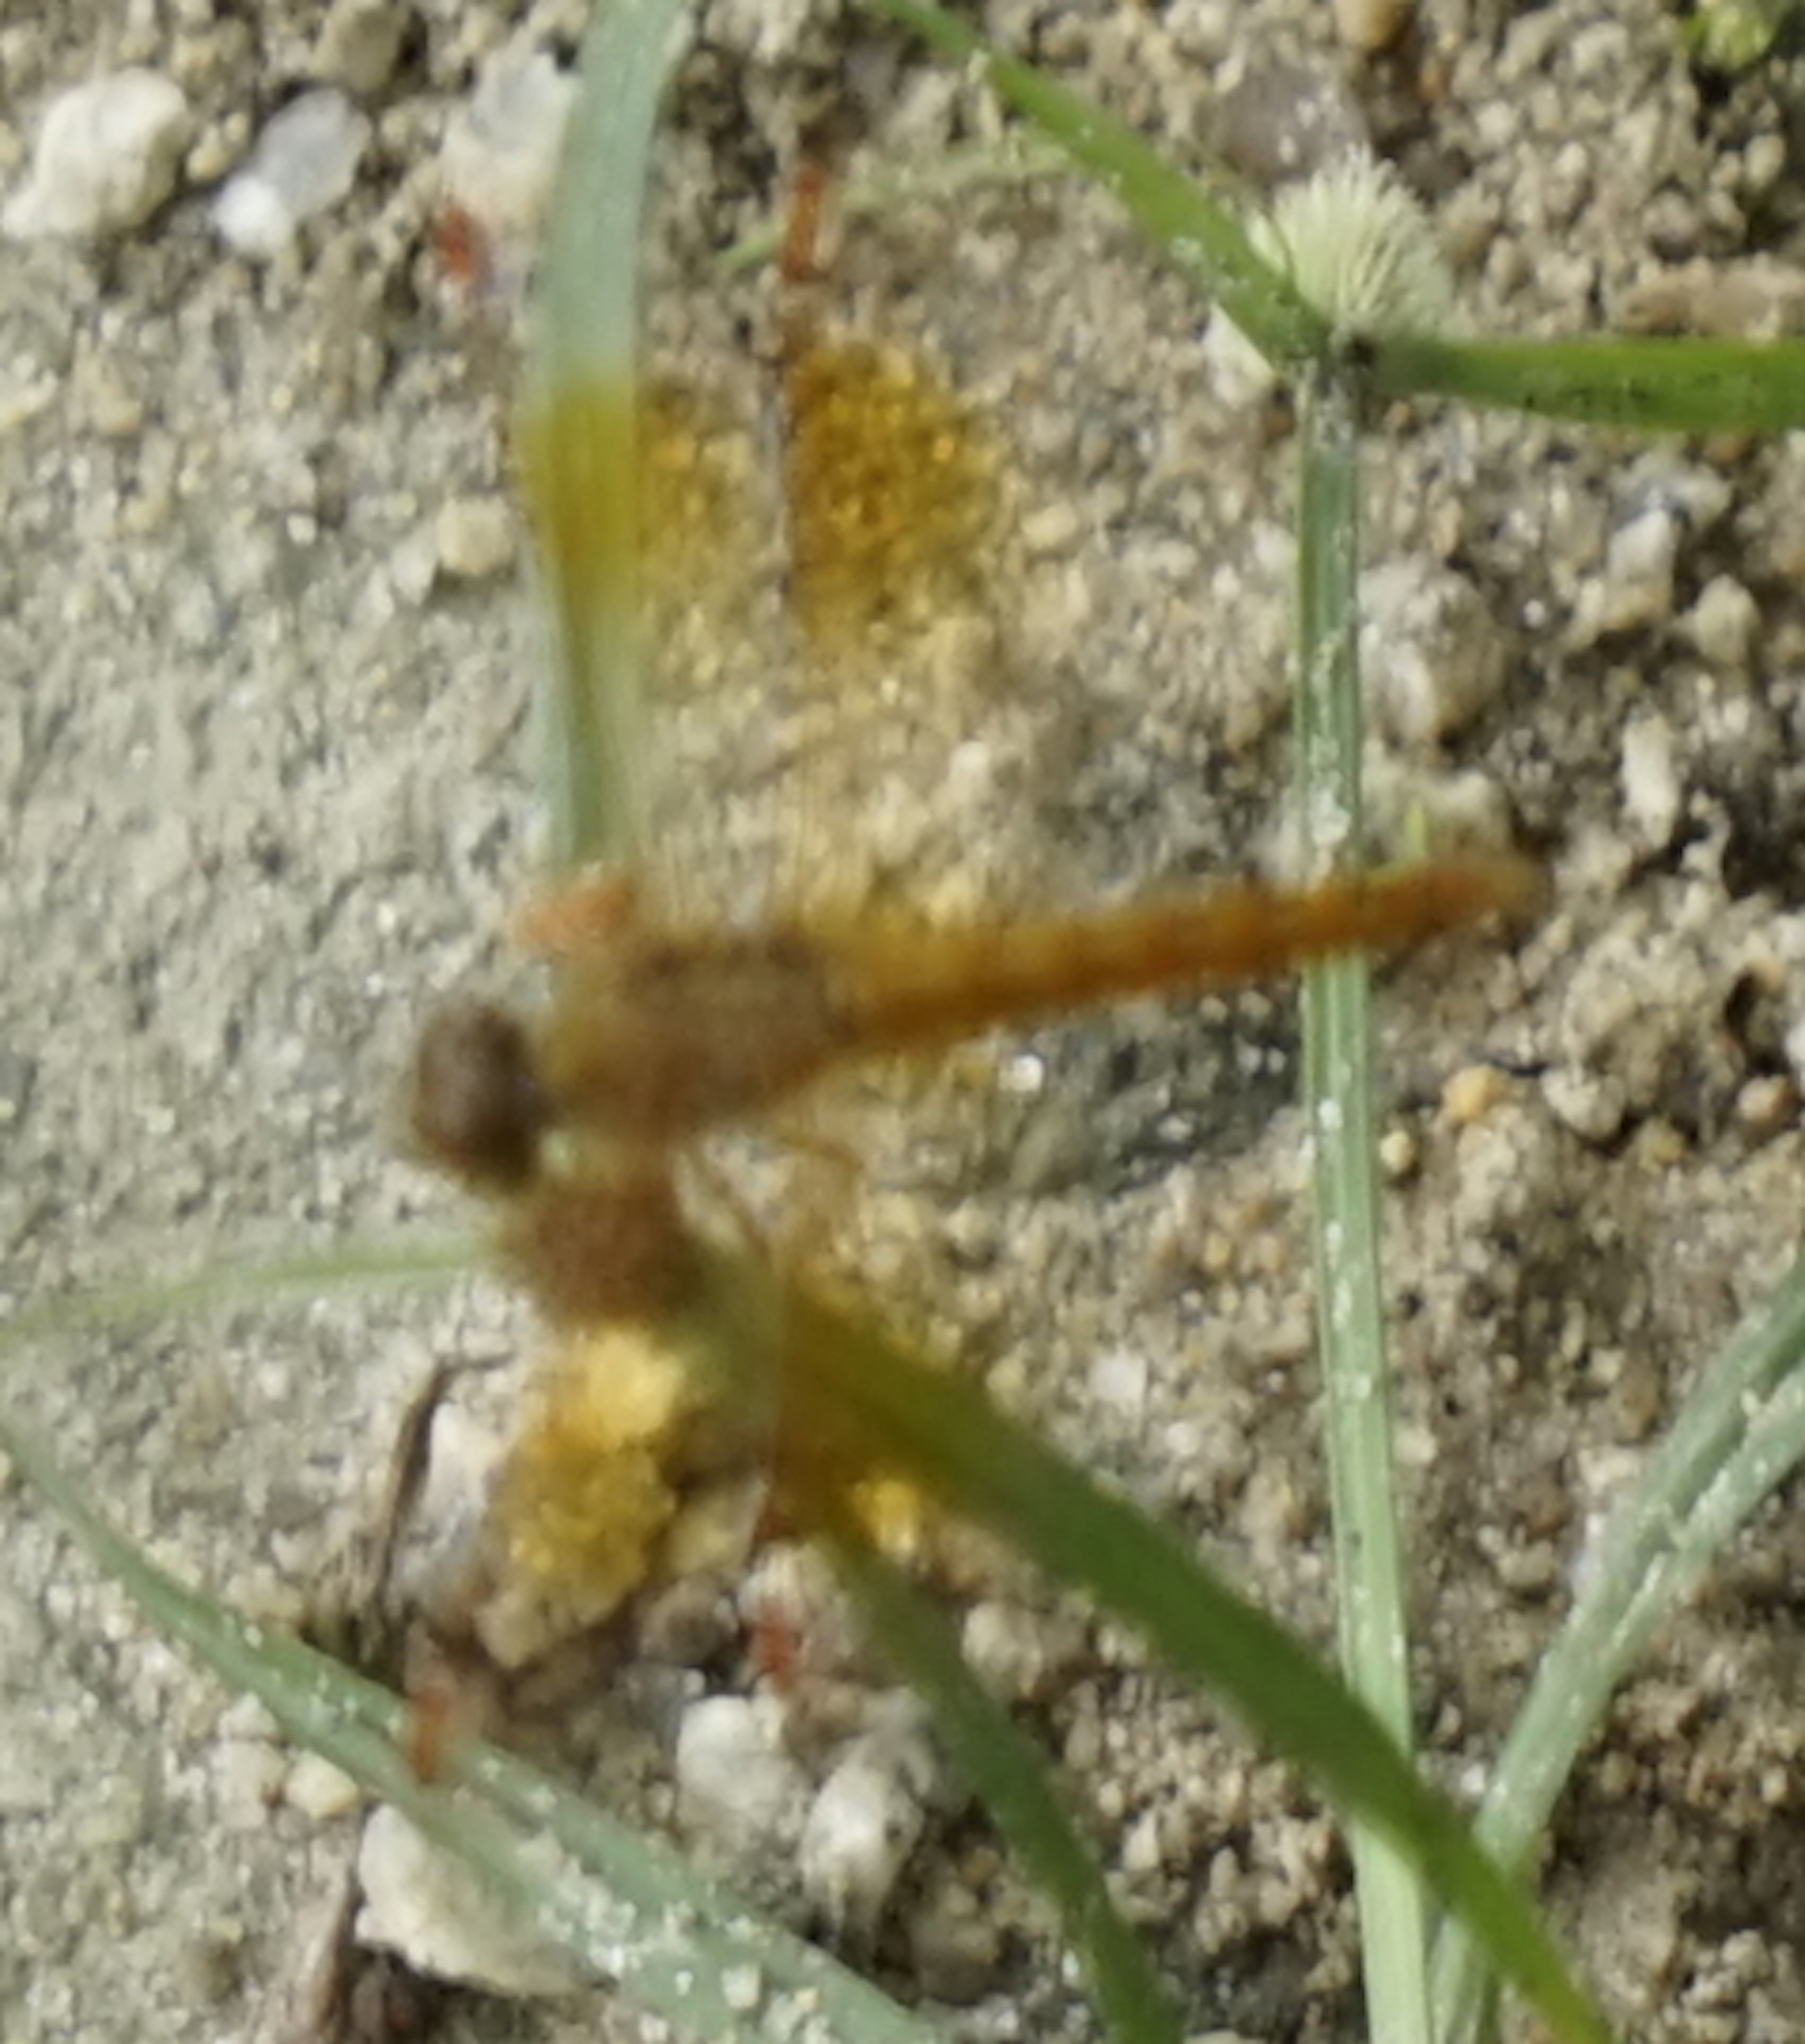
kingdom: Animalia
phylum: Arthropoda
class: Insecta
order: Odonata
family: Libellulidae
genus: Brachythemis
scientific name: Brachythemis contaminata
